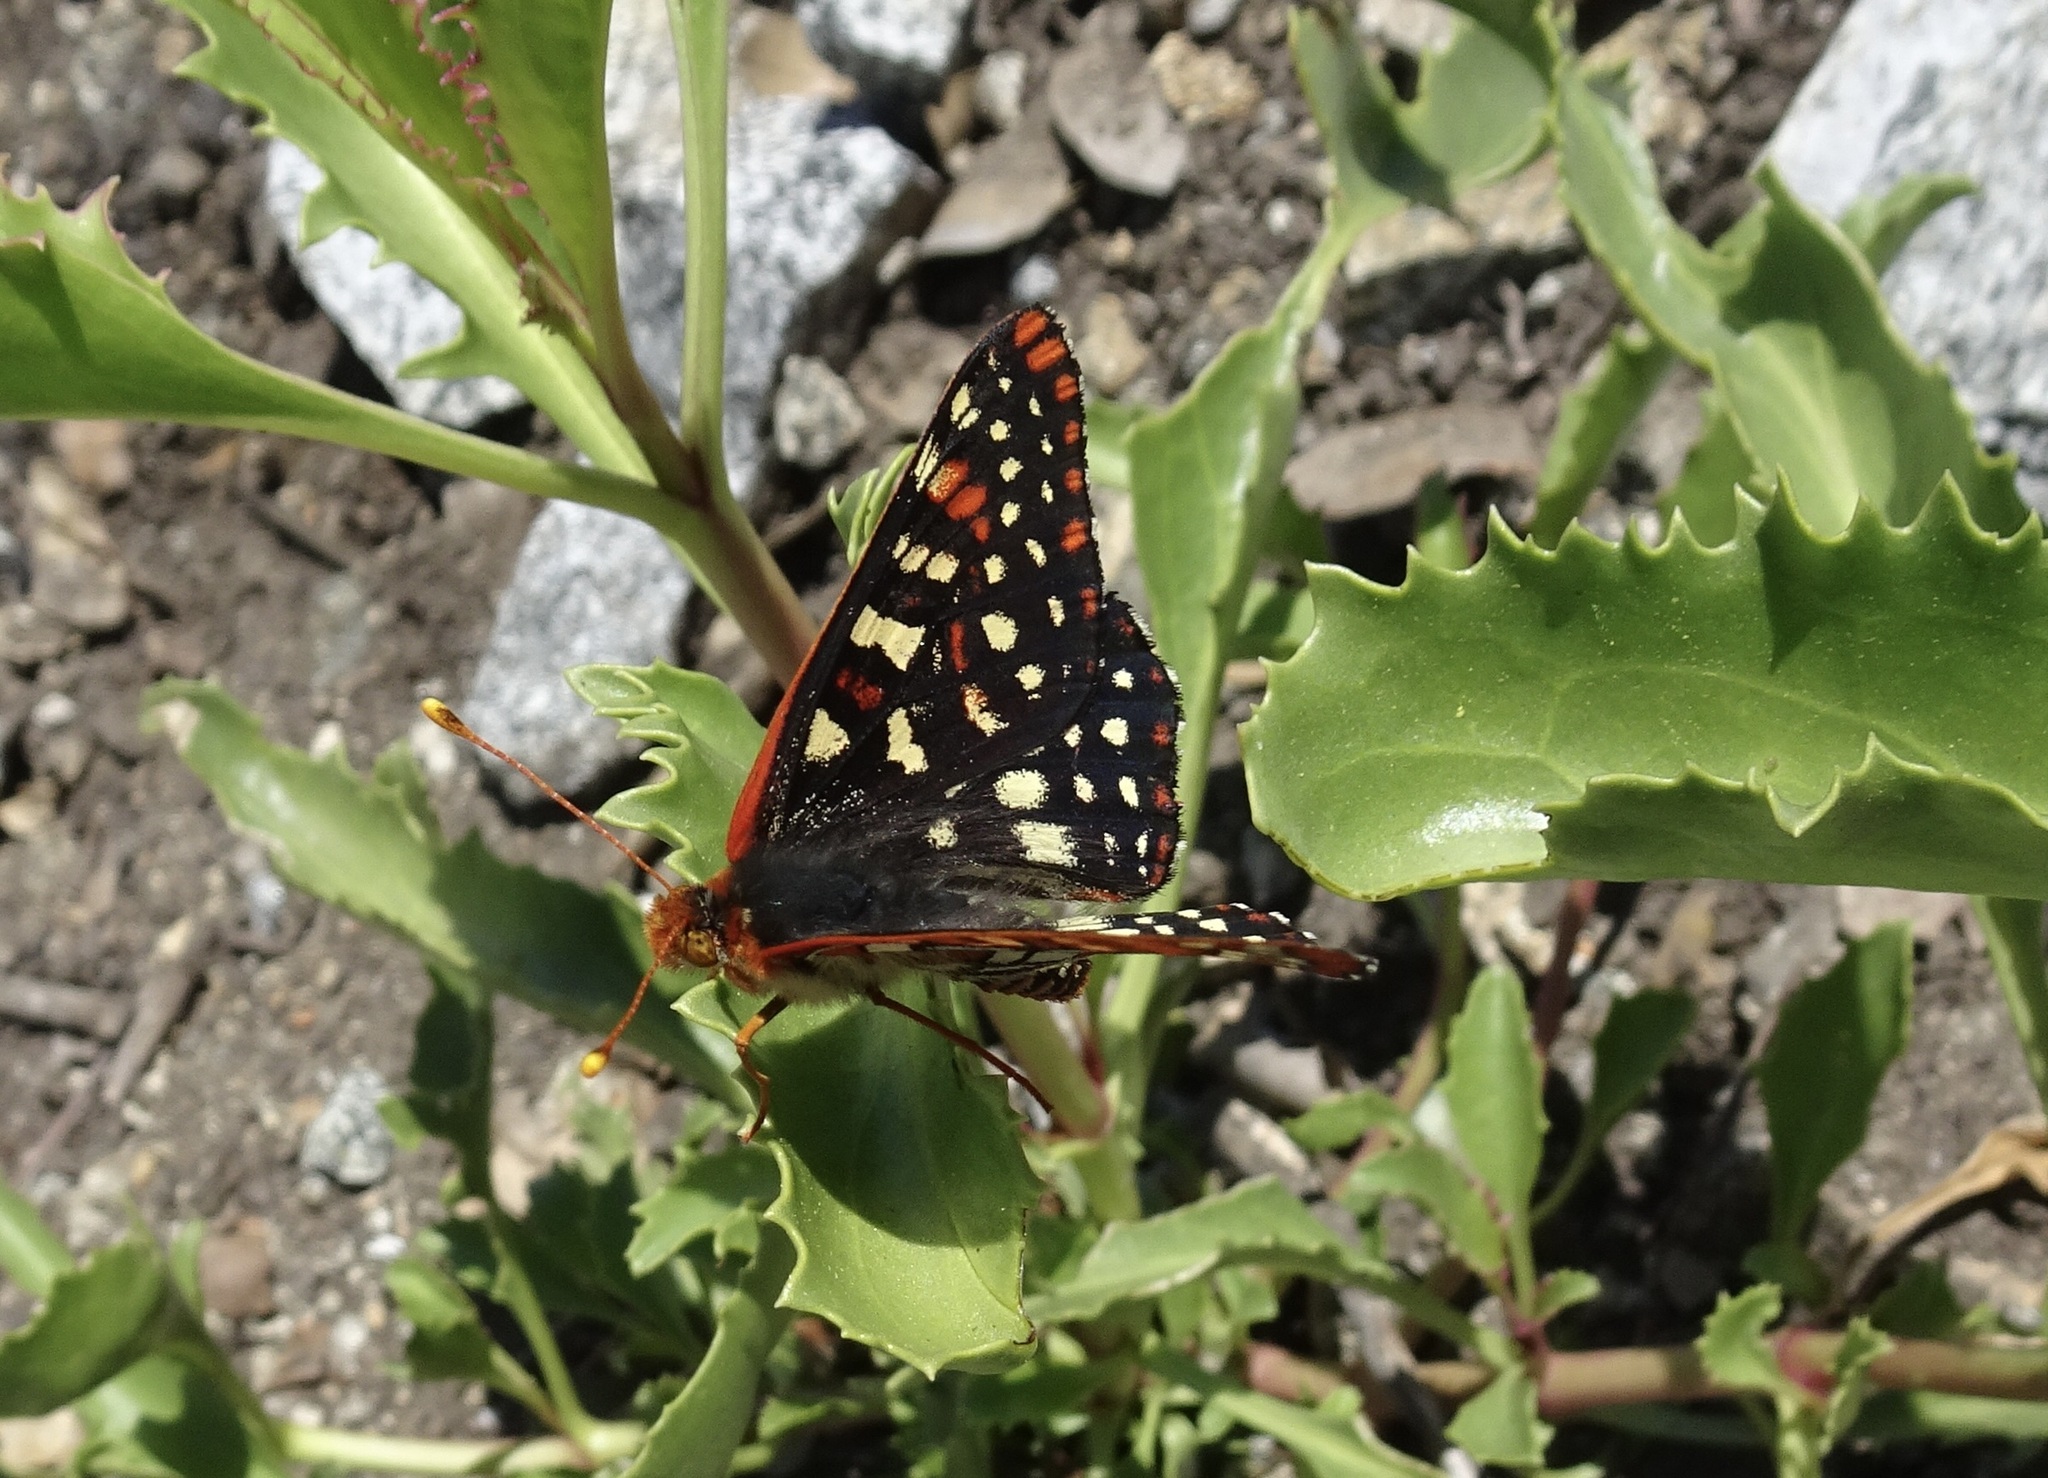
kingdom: Animalia
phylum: Arthropoda
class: Insecta
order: Lepidoptera
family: Nymphalidae
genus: Occidryas
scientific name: Occidryas chalcedona
